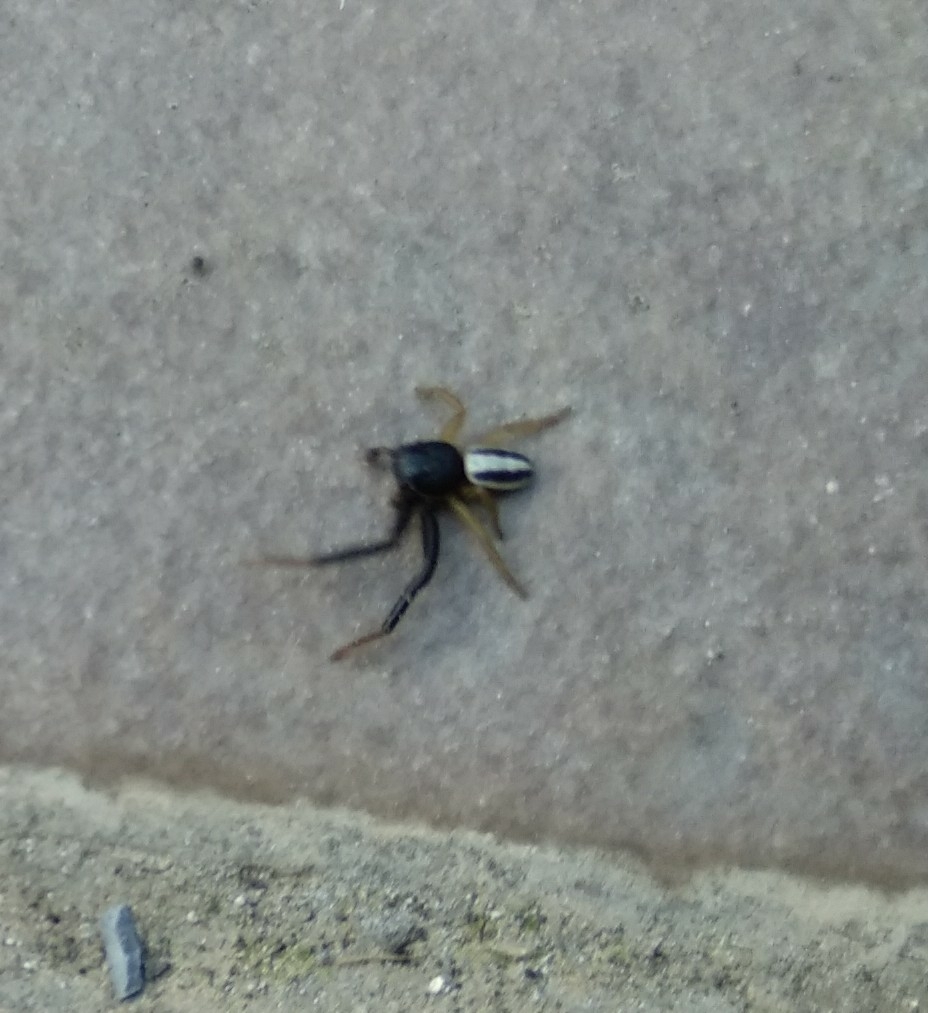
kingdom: Animalia
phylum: Arthropoda
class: Arachnida
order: Araneae
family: Thomisidae
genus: Firmicus
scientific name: Firmicus bivittatus
